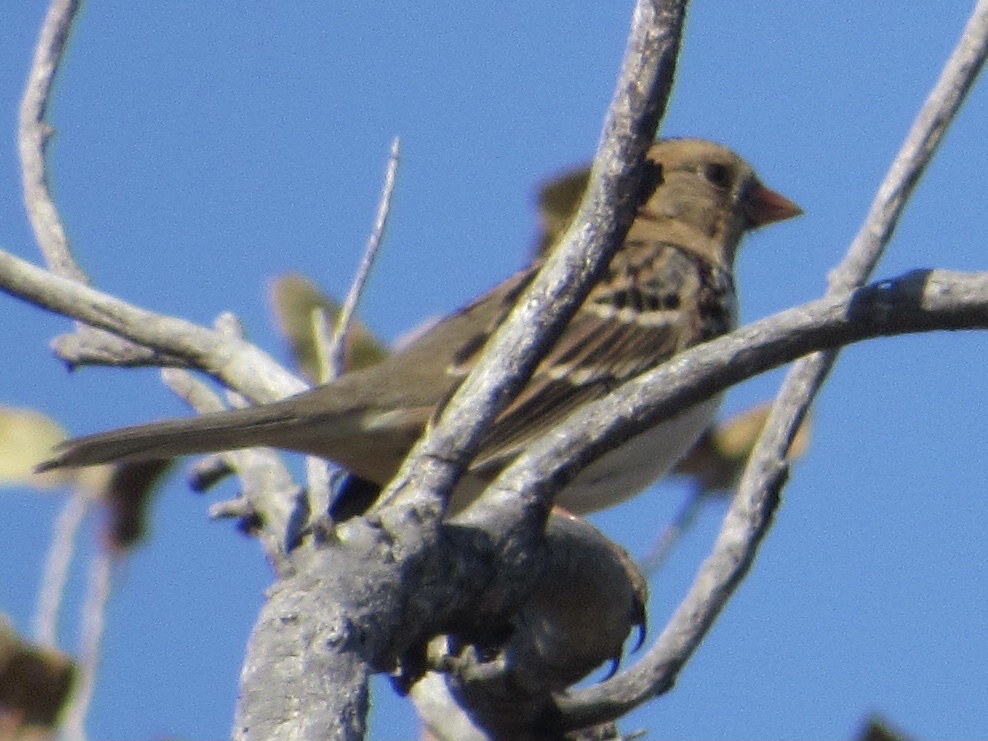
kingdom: Animalia
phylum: Chordata
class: Aves
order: Passeriformes
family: Passerellidae
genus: Zonotrichia
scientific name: Zonotrichia querula
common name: Harris's sparrow
